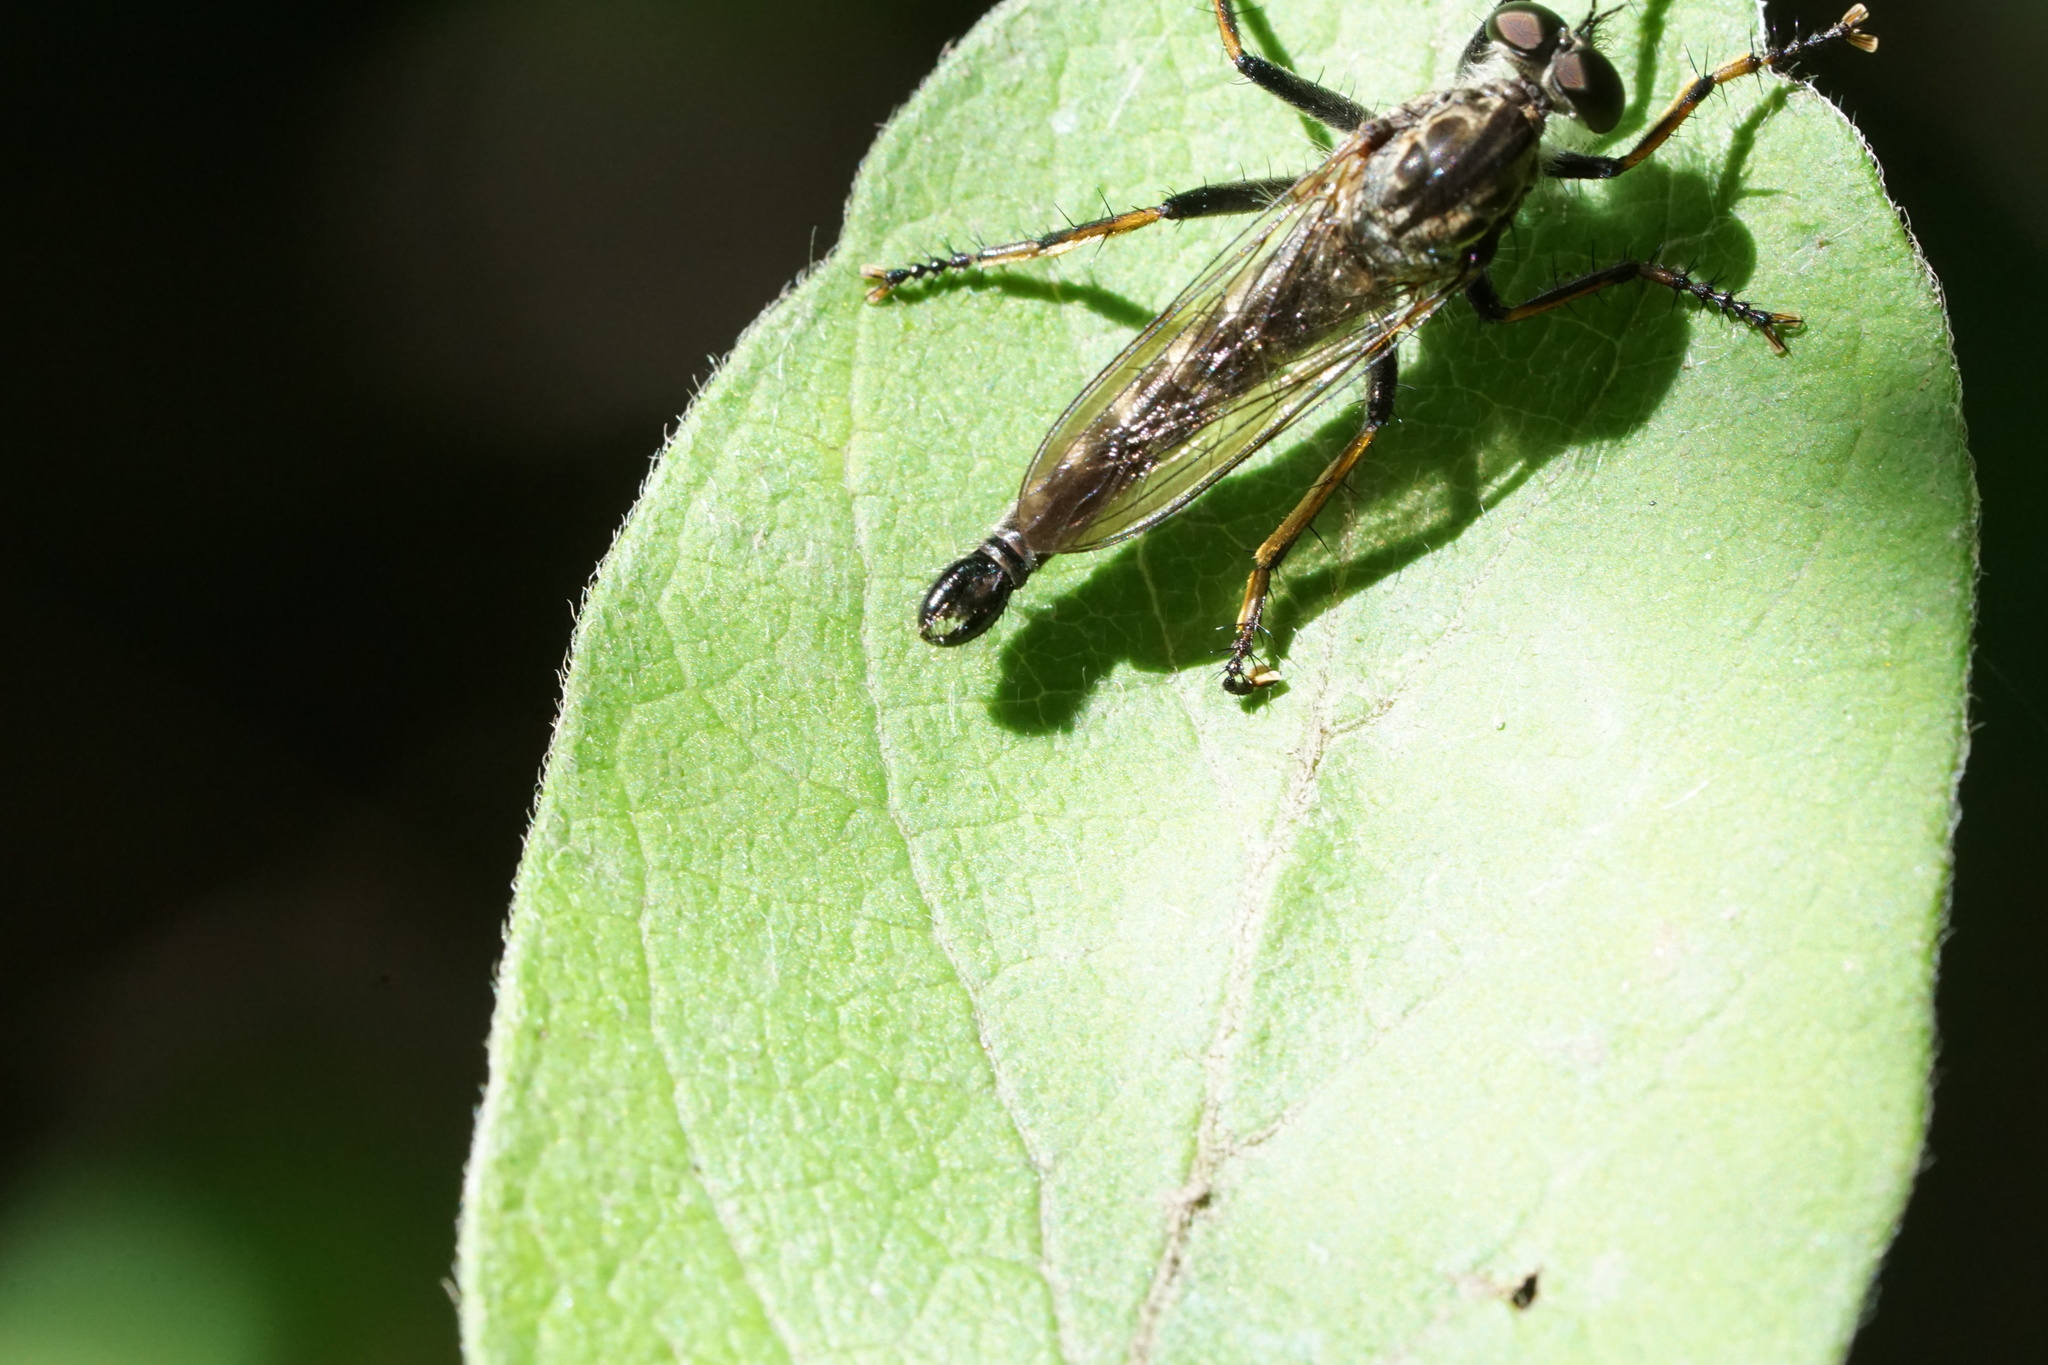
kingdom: Animalia
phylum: Arthropoda
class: Insecta
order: Diptera
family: Asilidae
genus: Machimus
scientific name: Machimus sadyates
